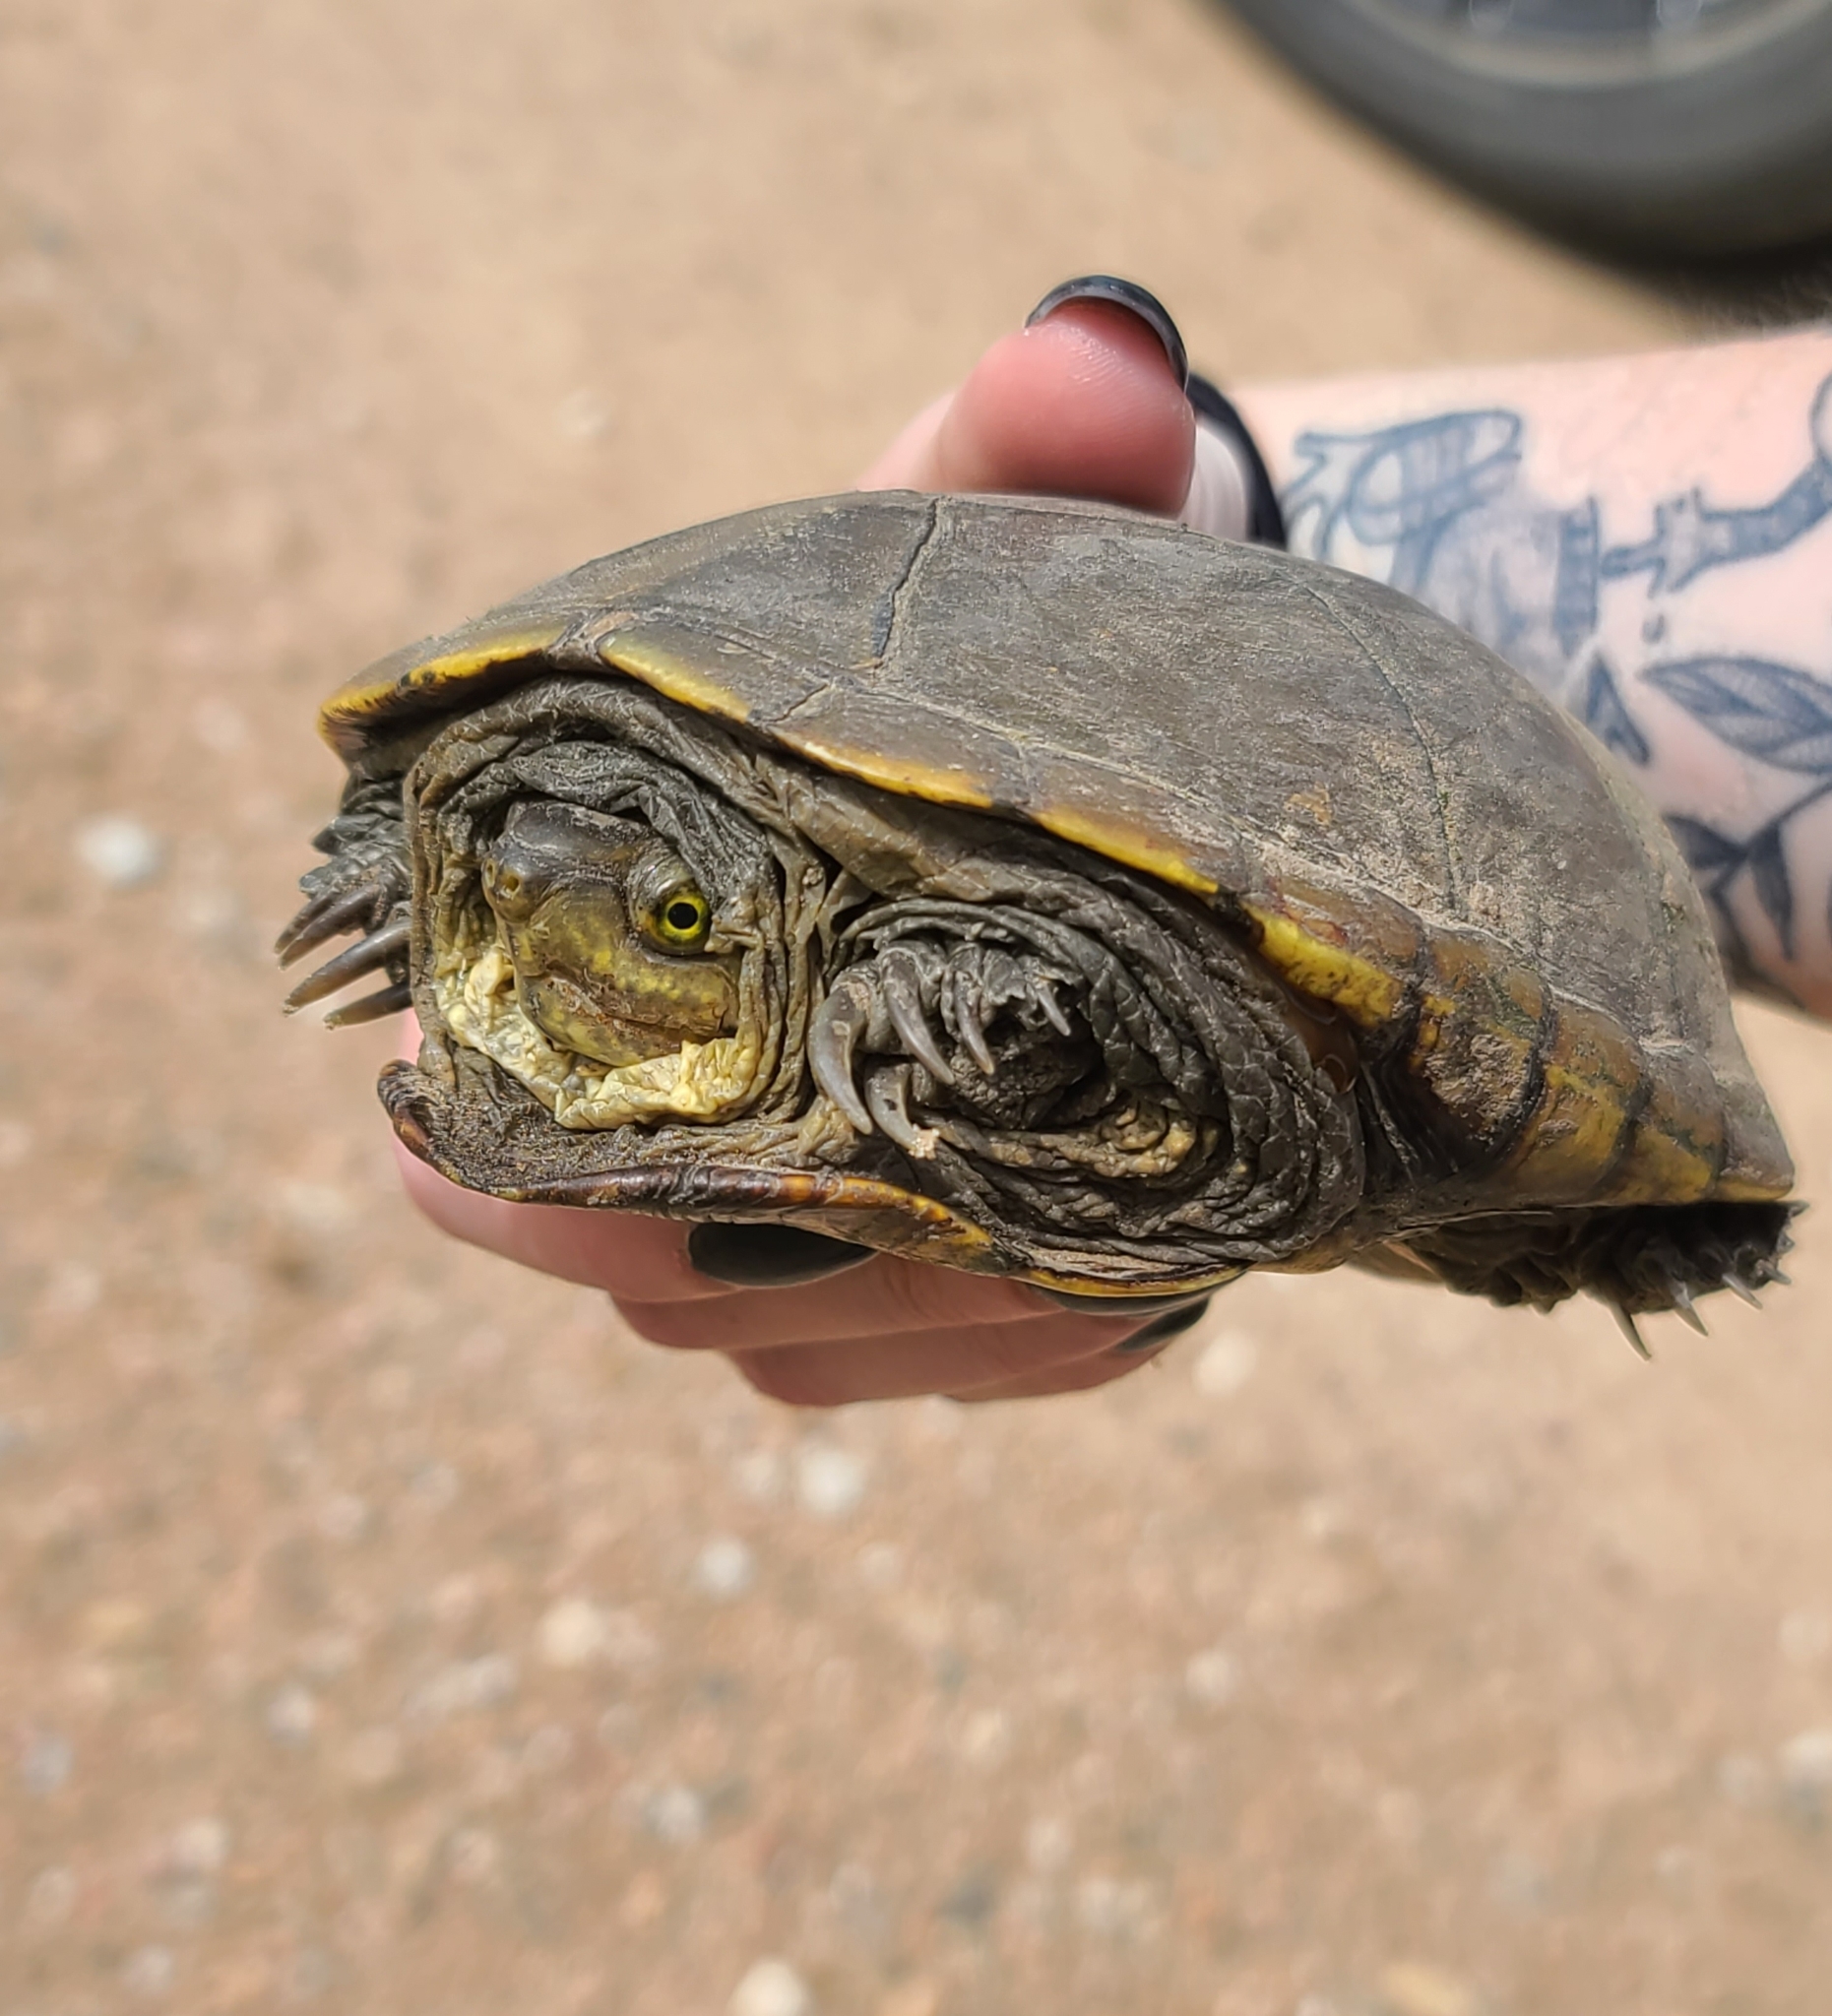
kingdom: Animalia
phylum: Chordata
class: Testudines
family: Kinosternidae
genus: Kinosternon
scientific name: Kinosternon flavescens
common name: Yellow mud turtle
